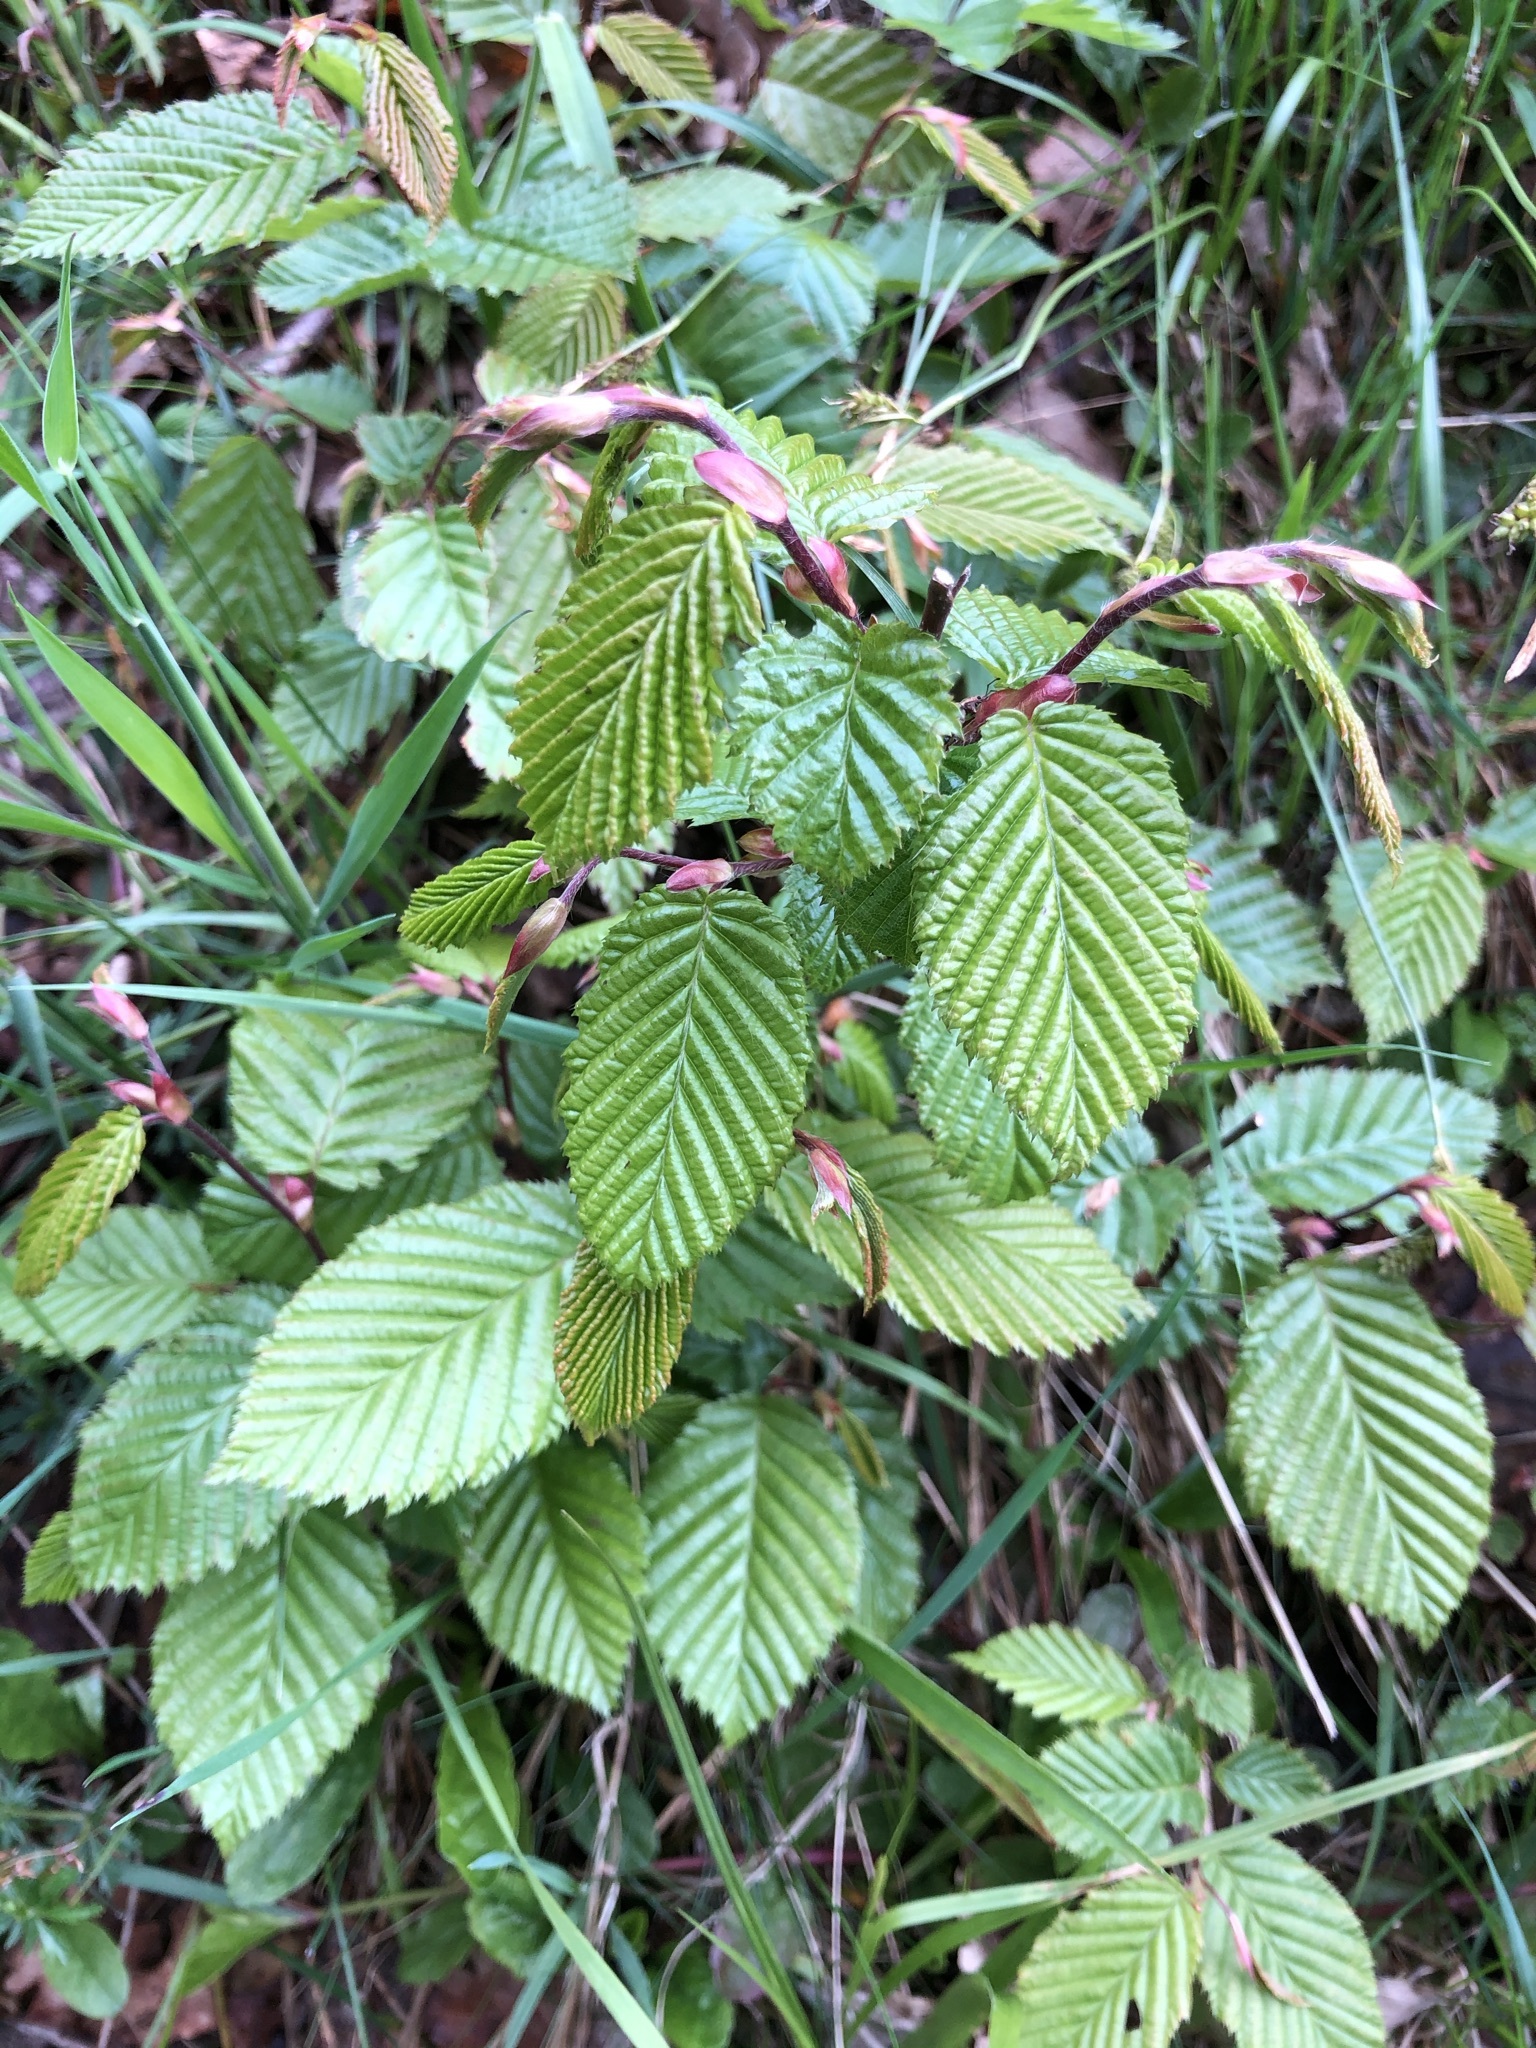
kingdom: Plantae
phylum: Tracheophyta
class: Magnoliopsida
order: Fagales
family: Betulaceae
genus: Carpinus
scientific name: Carpinus betulus
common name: Hornbeam
